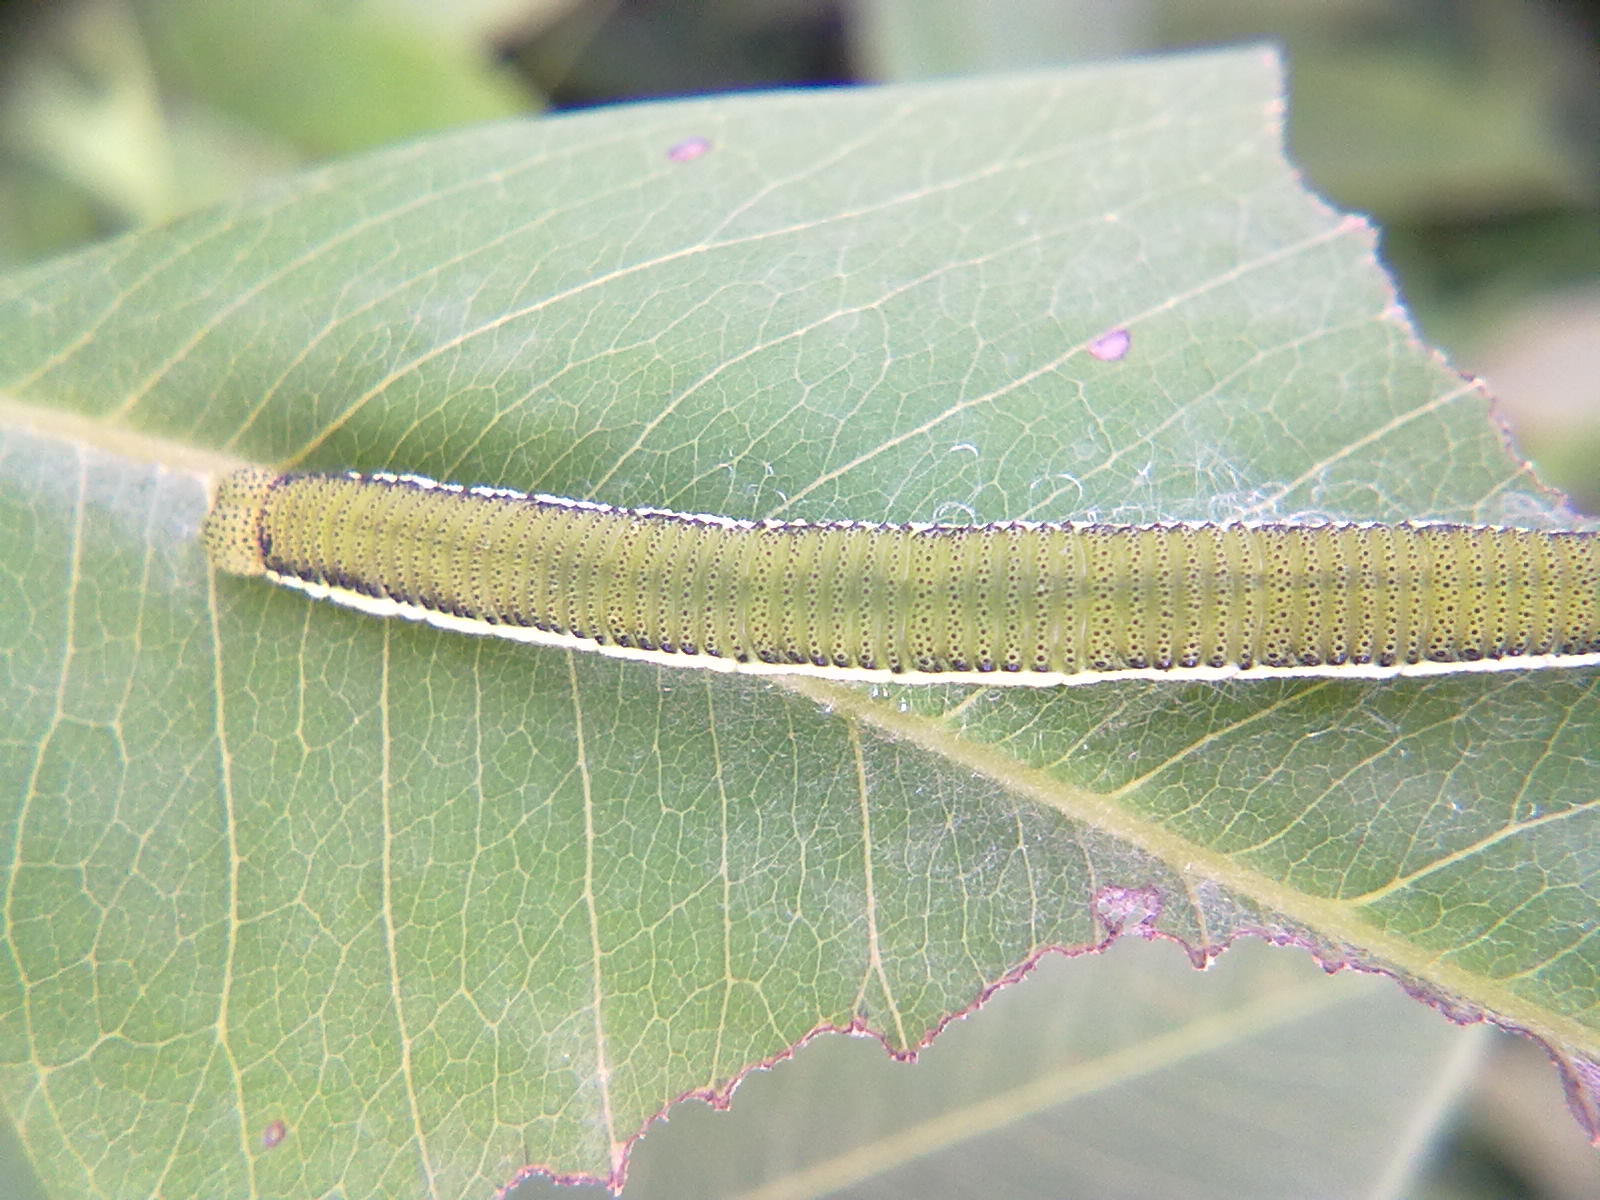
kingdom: Animalia
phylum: Arthropoda
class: Insecta
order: Lepidoptera
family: Pieridae
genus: Catopsilia
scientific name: Catopsilia pyranthe
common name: Mottled emigrant
